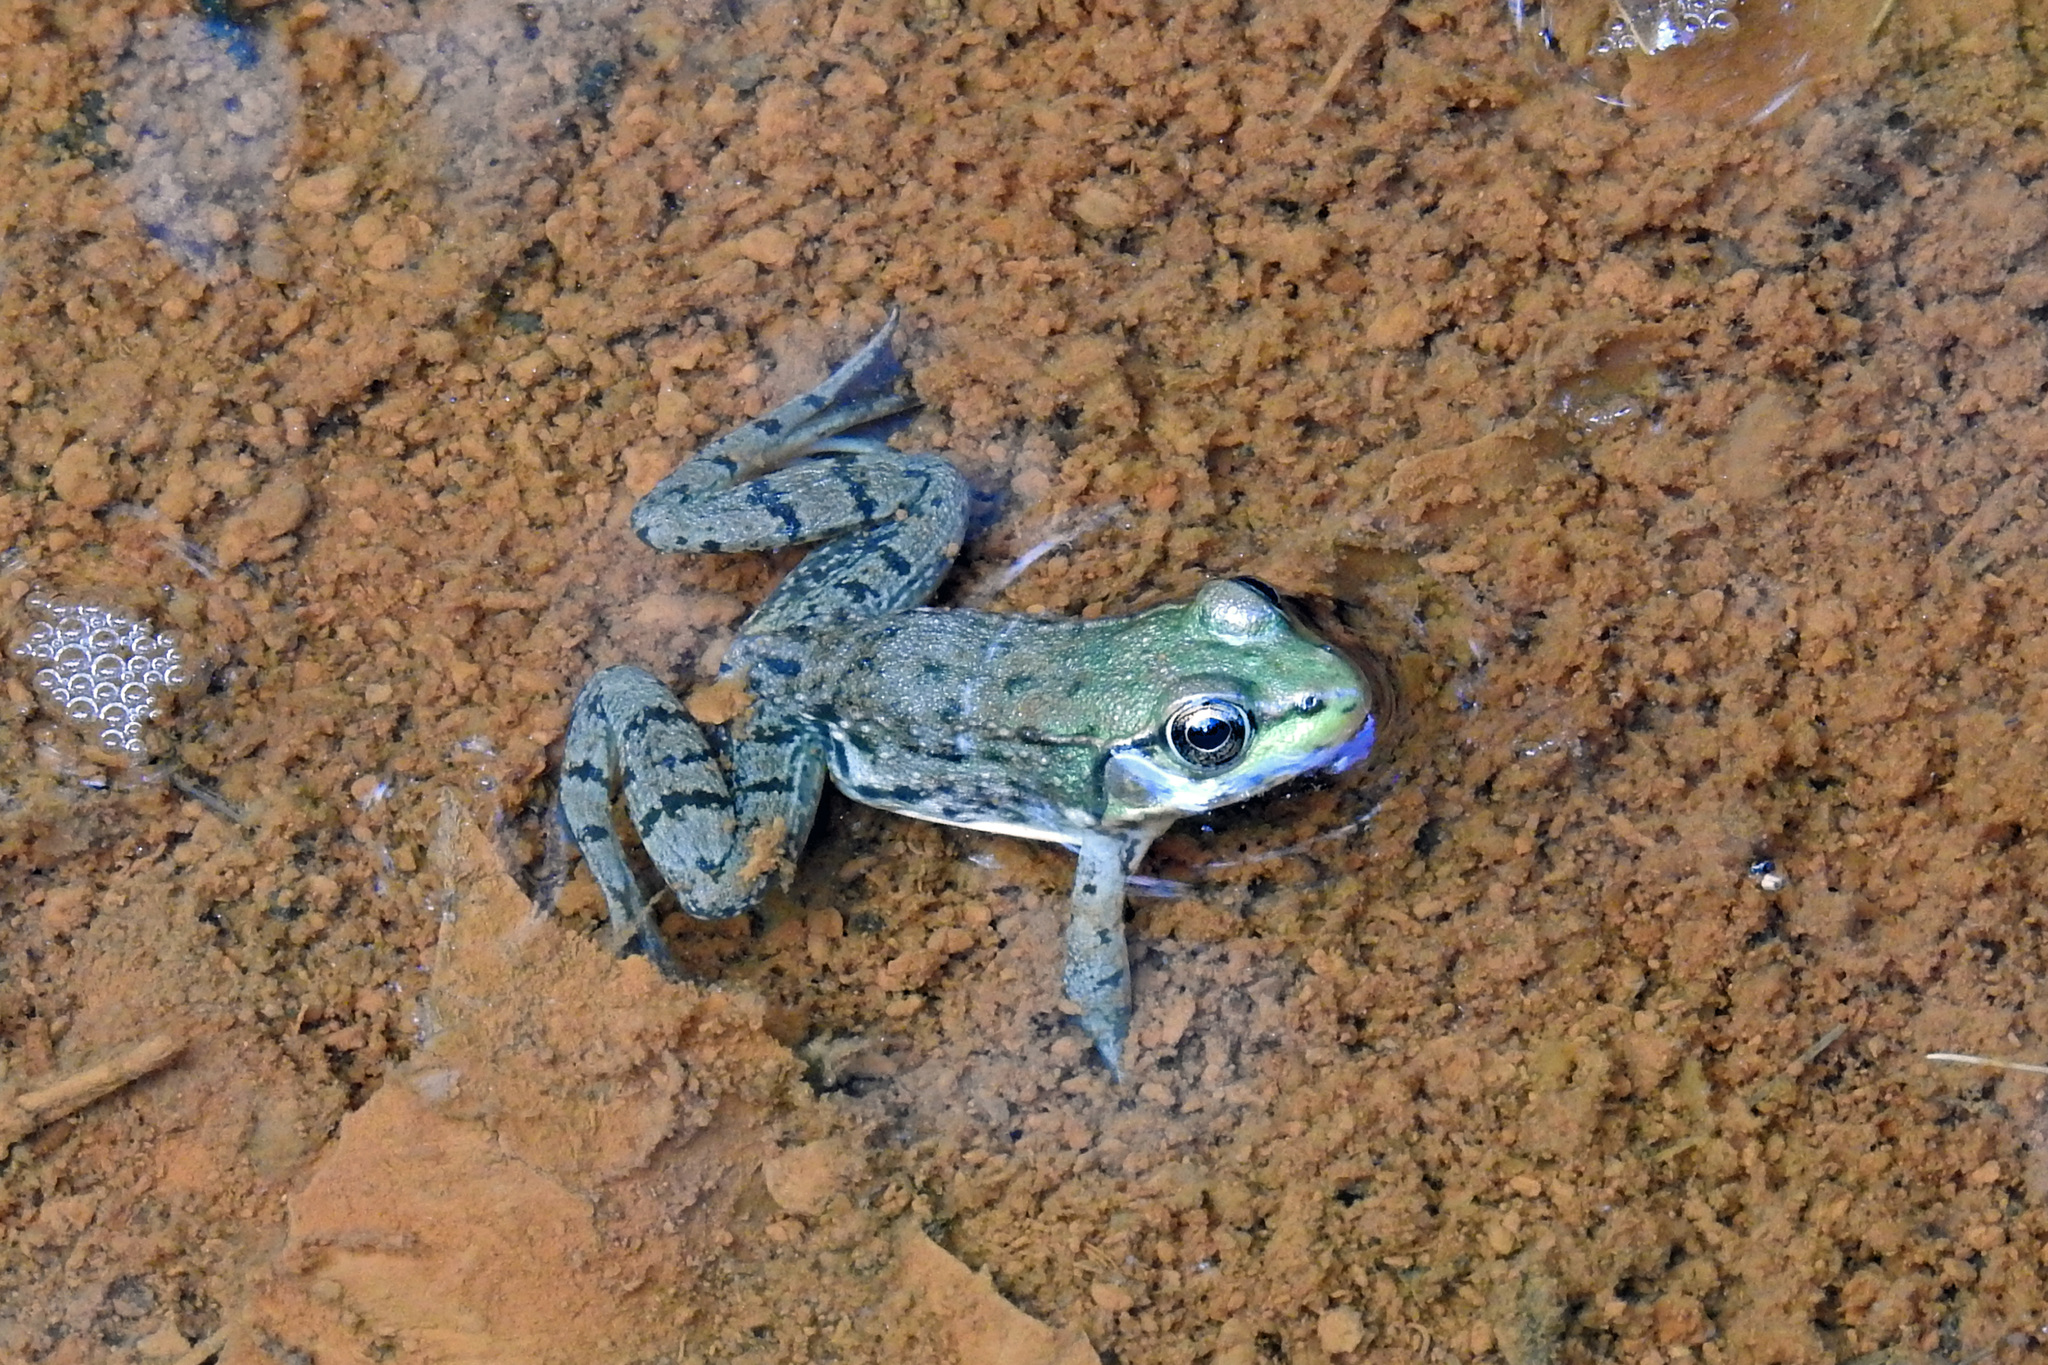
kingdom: Animalia
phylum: Chordata
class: Amphibia
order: Anura
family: Ranidae
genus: Lithobates
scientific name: Lithobates clamitans
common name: Green frog
